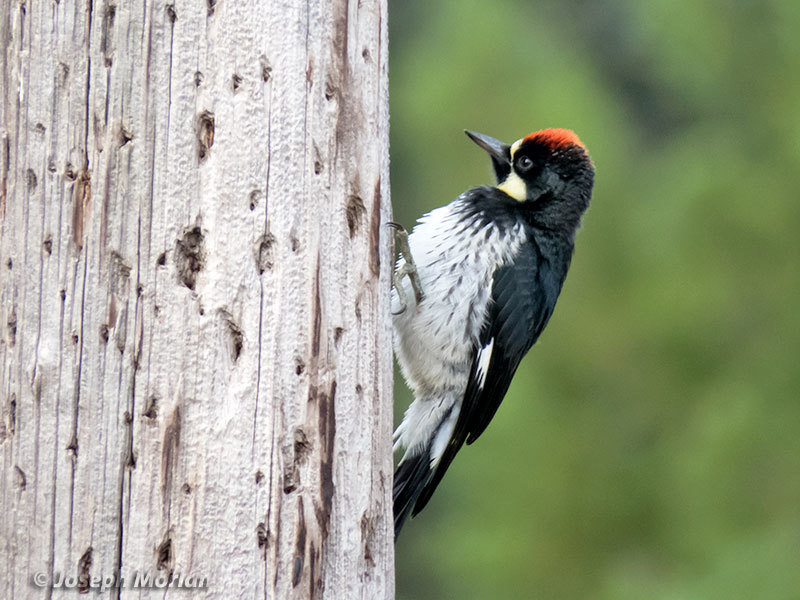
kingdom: Animalia
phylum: Chordata
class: Aves
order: Piciformes
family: Picidae
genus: Melanerpes
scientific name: Melanerpes formicivorus
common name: Acorn woodpecker
